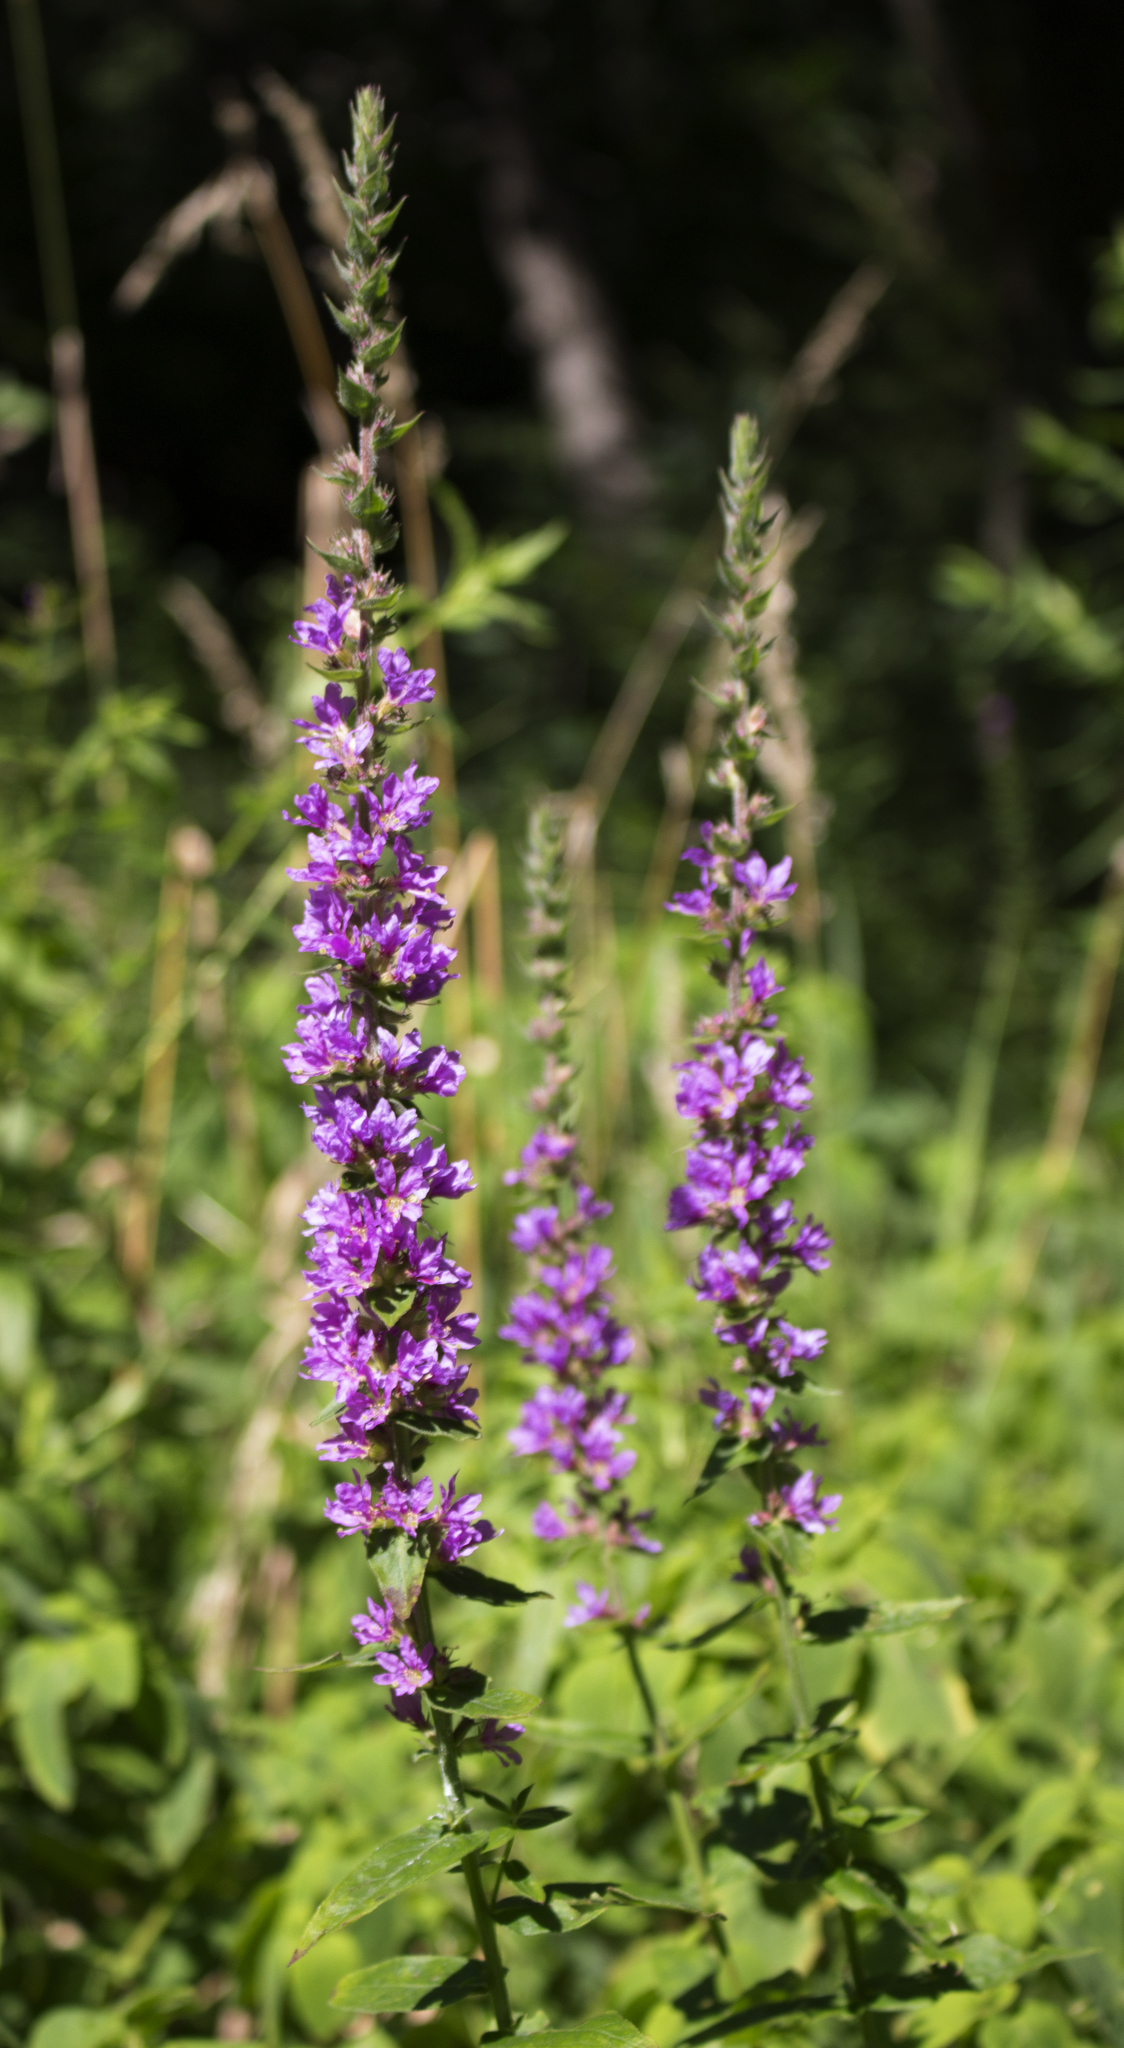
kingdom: Plantae
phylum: Tracheophyta
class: Magnoliopsida
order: Myrtales
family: Lythraceae
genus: Lythrum
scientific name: Lythrum salicaria
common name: Purple loosestrife
